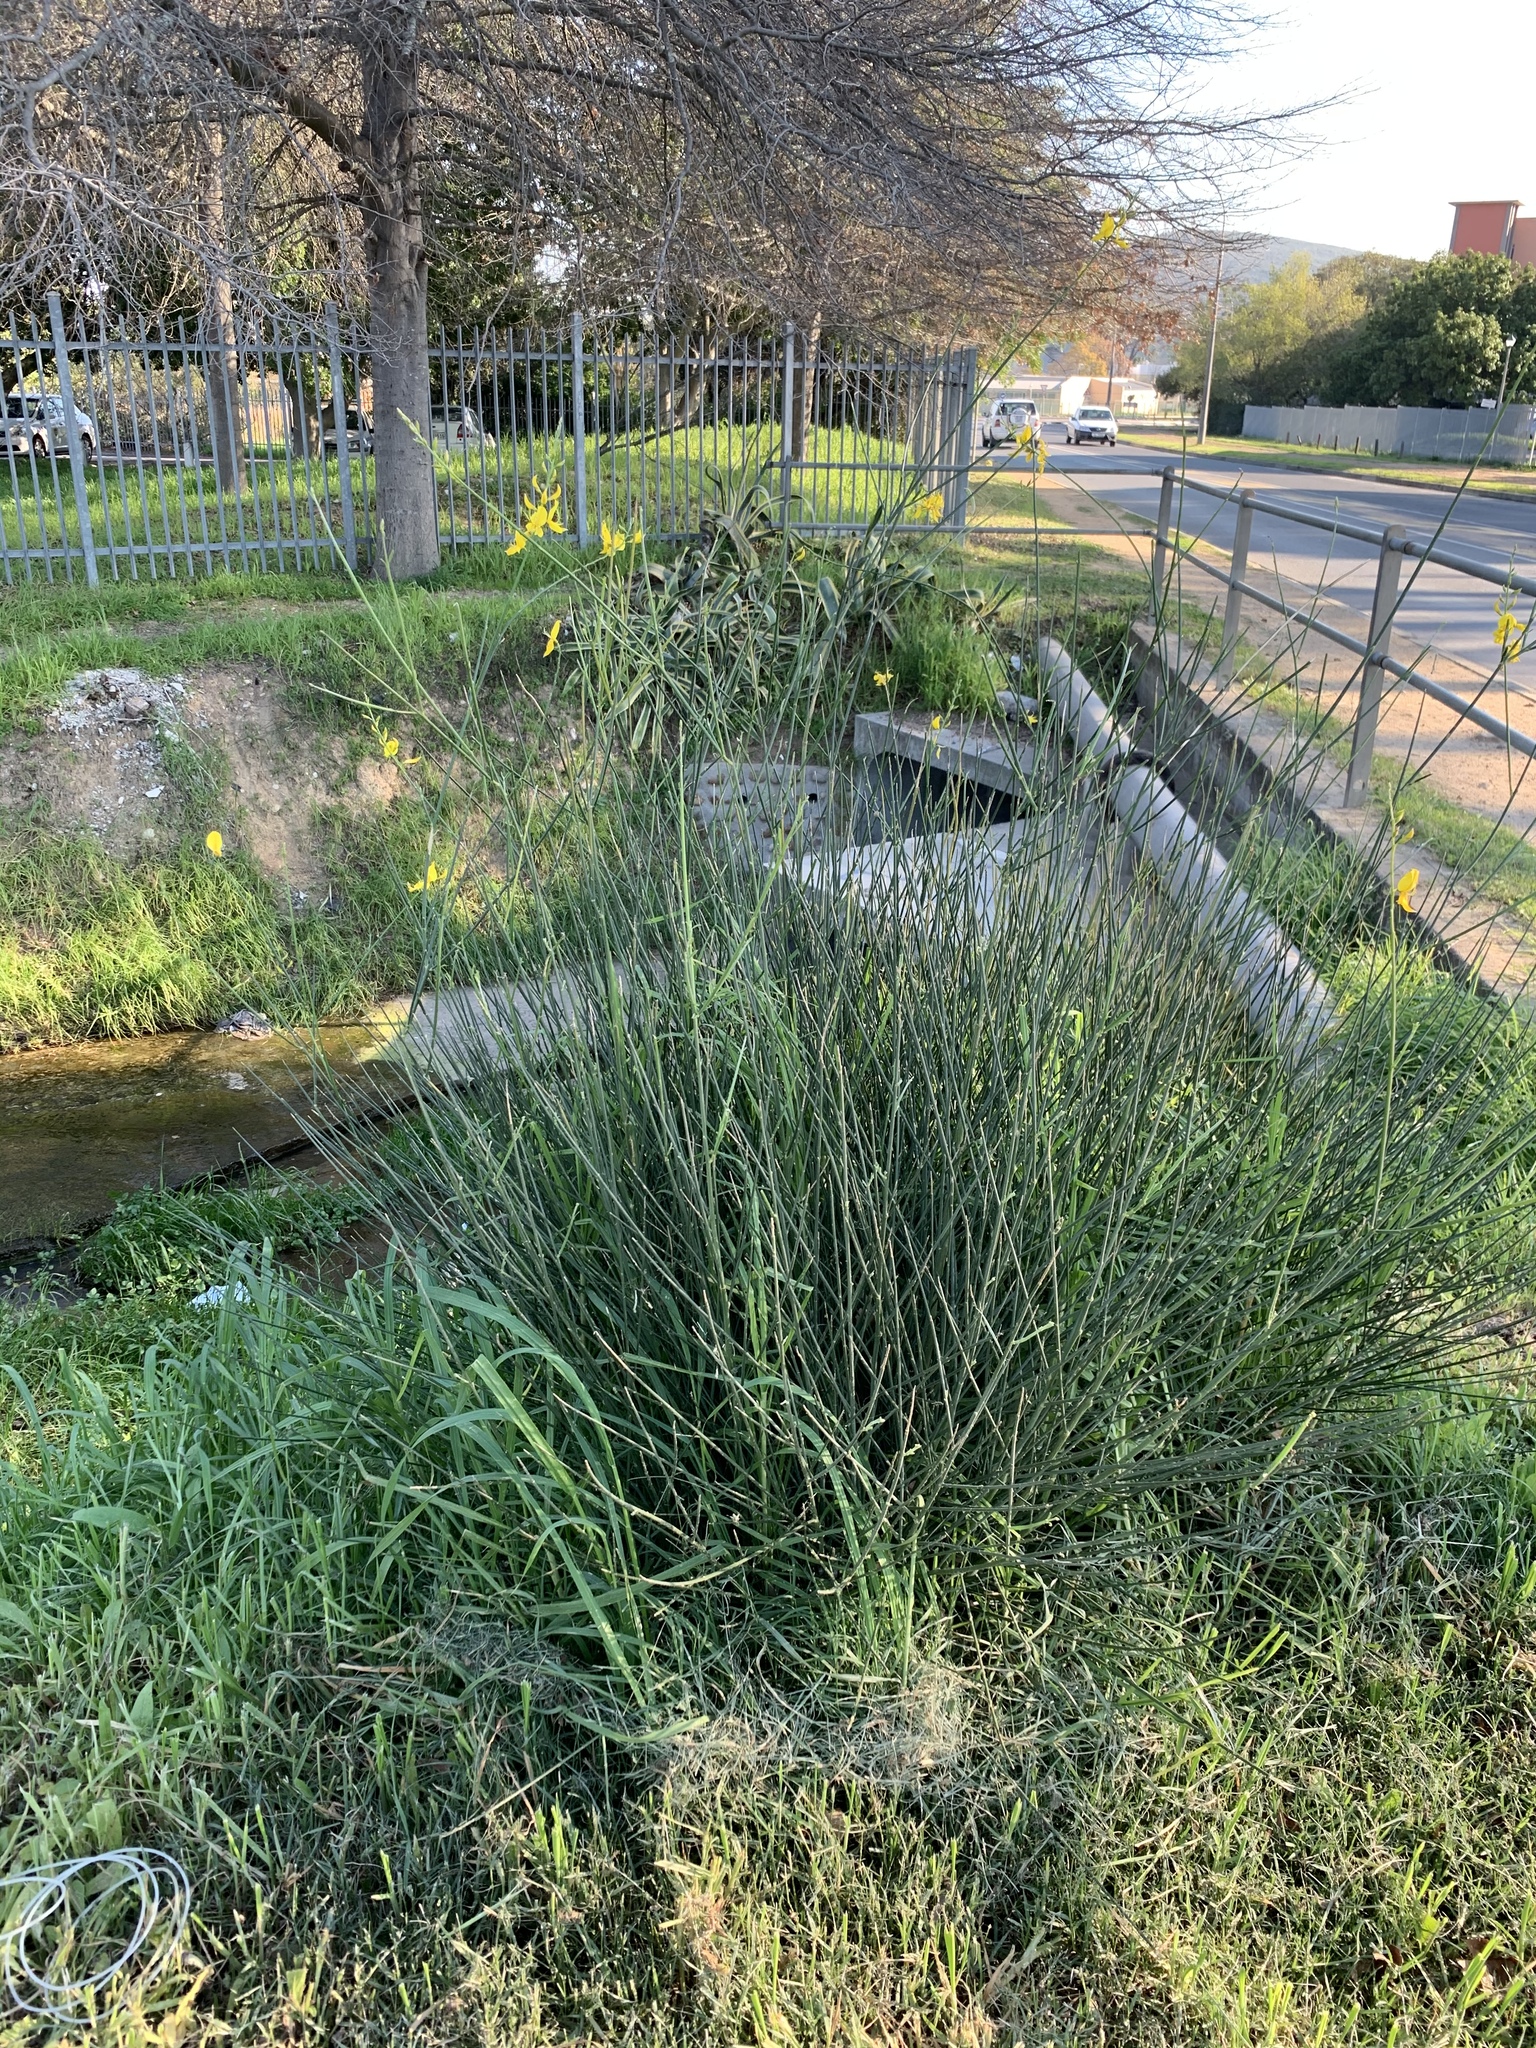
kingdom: Plantae
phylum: Tracheophyta
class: Magnoliopsida
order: Fabales
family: Fabaceae
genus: Spartium
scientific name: Spartium junceum
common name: Spanish broom
